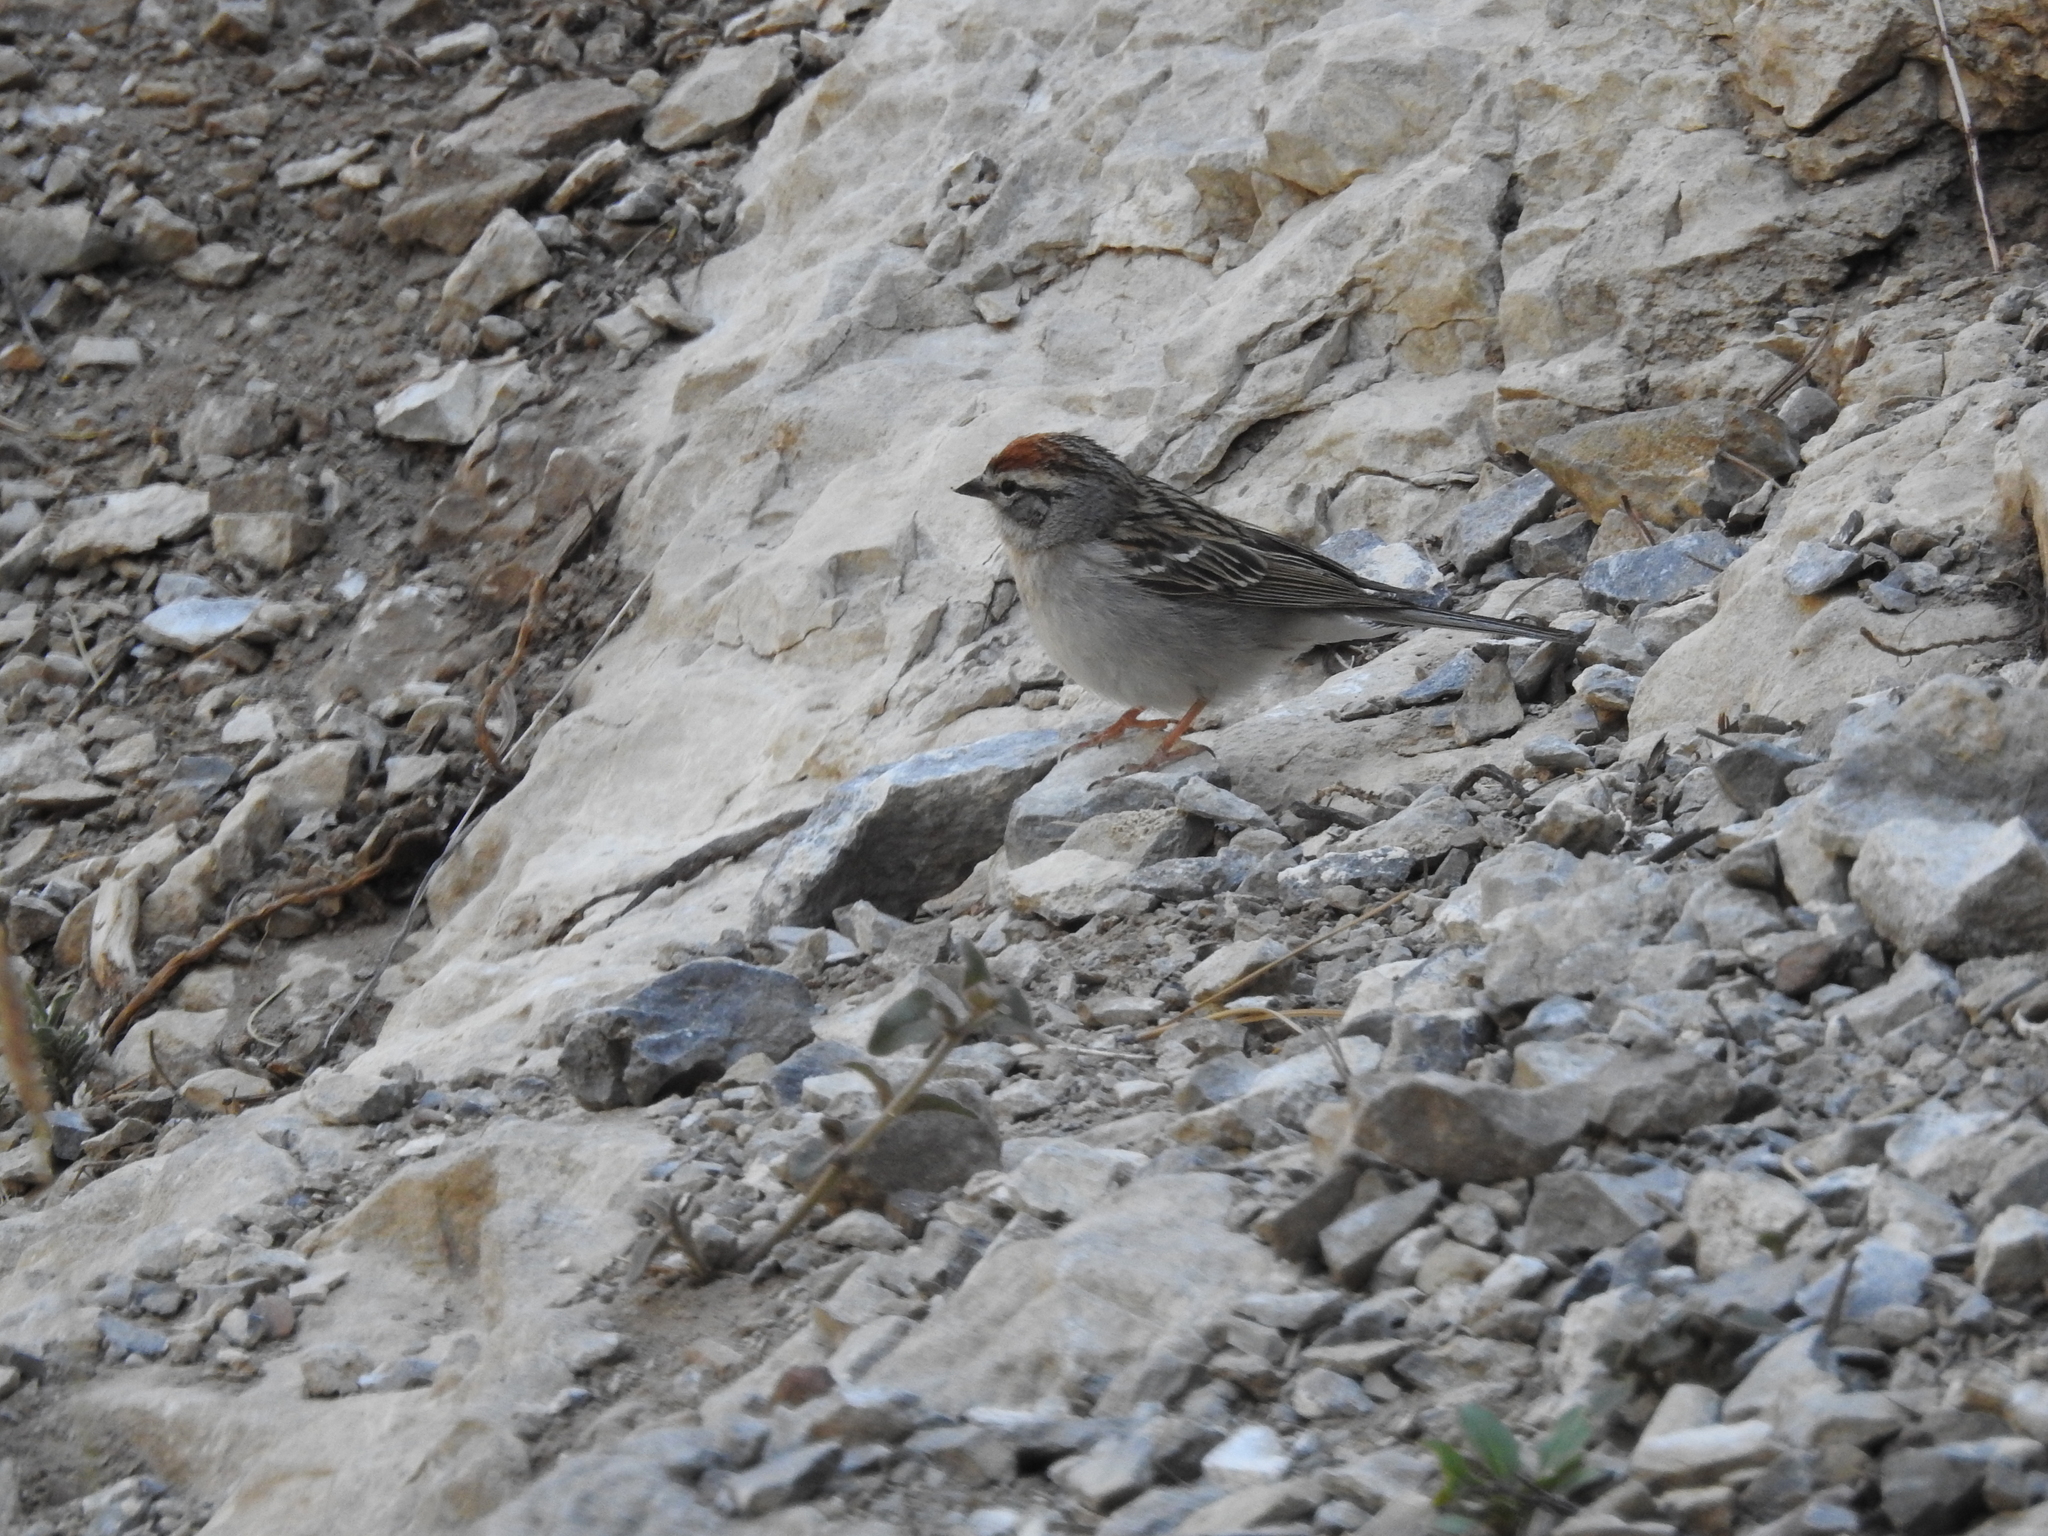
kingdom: Animalia
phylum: Chordata
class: Aves
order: Passeriformes
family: Passerellidae
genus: Spizella
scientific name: Spizella passerina
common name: Chipping sparrow
